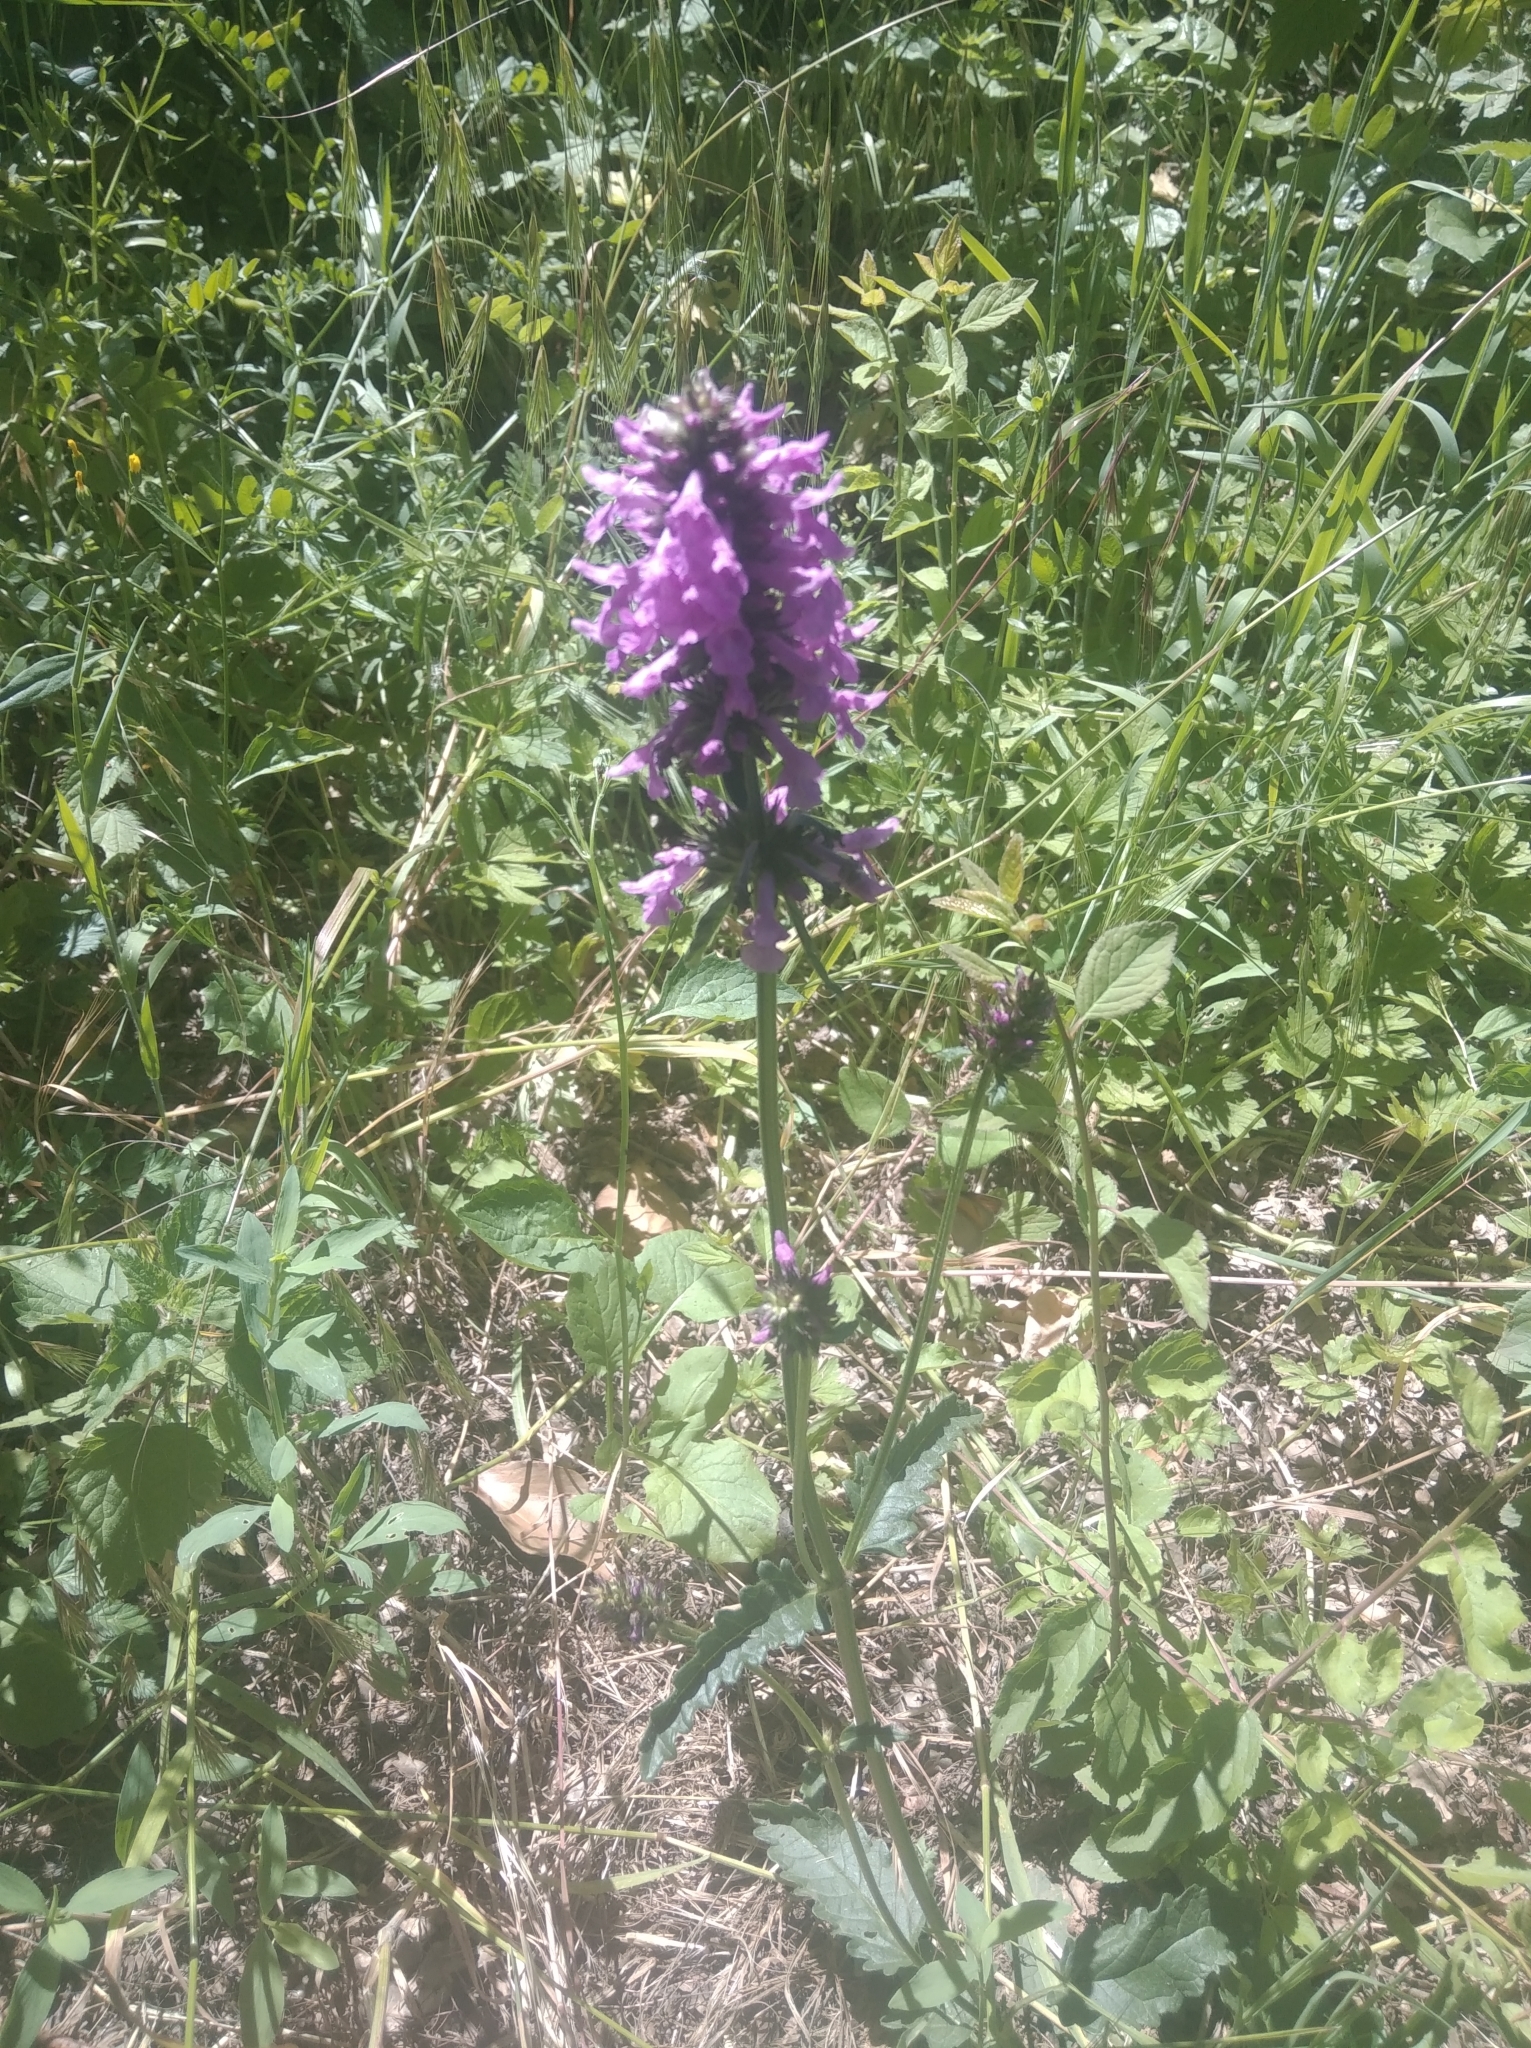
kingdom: Plantae
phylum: Tracheophyta
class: Magnoliopsida
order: Lamiales
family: Lamiaceae
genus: Betonica
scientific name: Betonica officinalis
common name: Bishop's-wort
